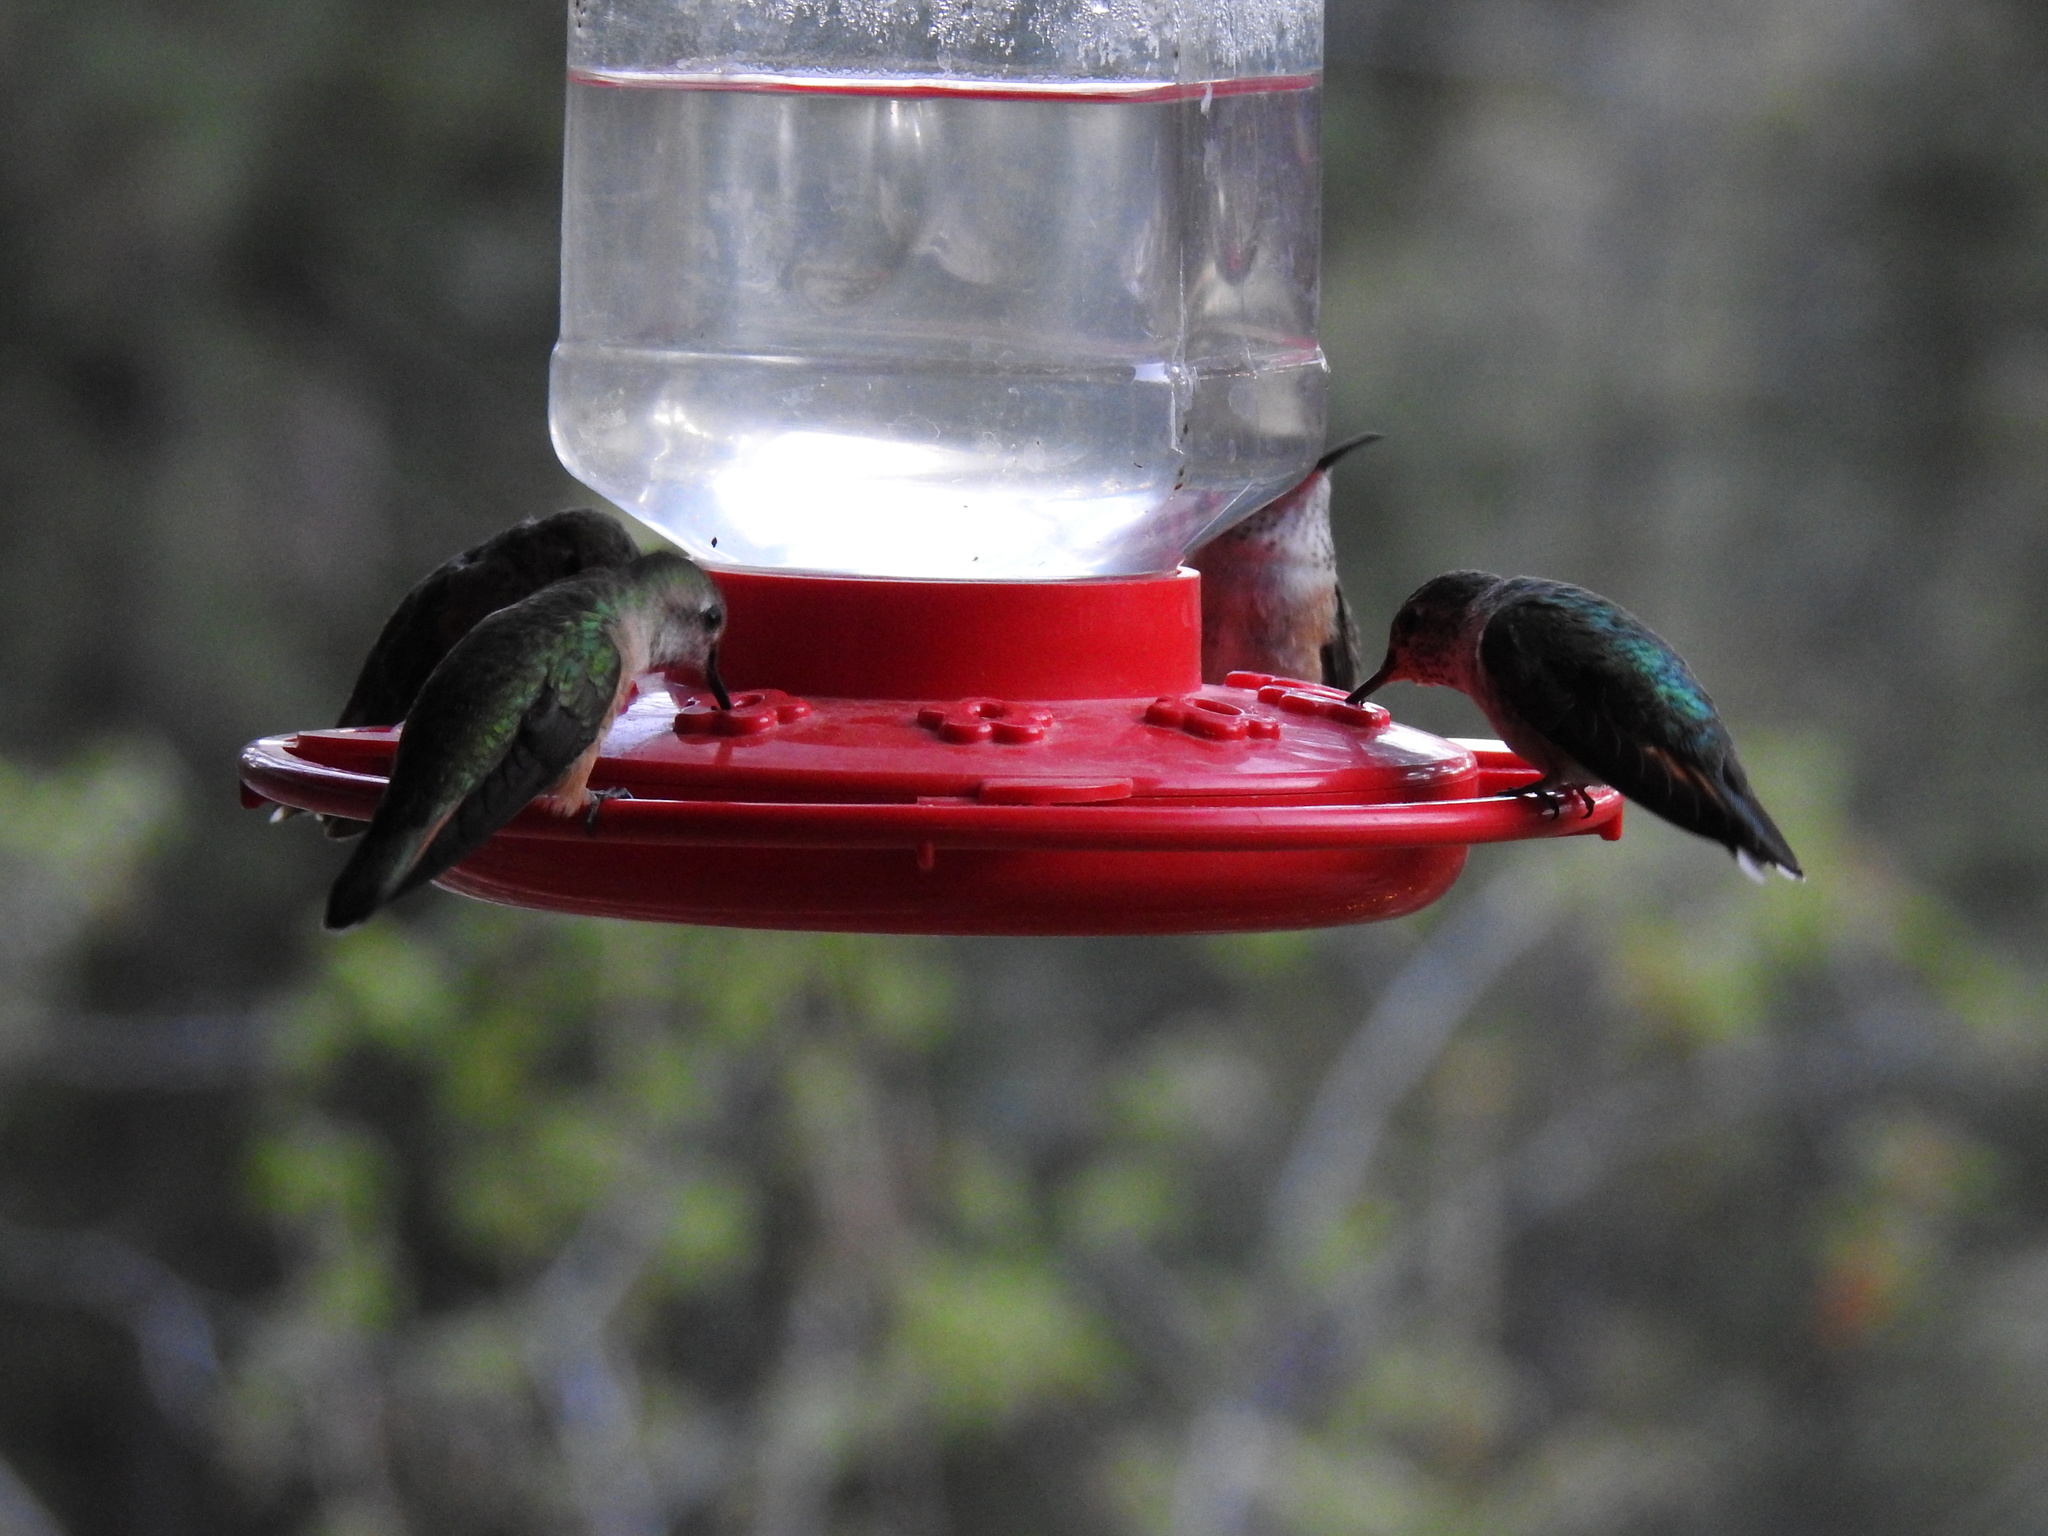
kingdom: Animalia
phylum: Chordata
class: Aves
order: Apodiformes
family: Trochilidae
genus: Selasphorus
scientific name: Selasphorus platycercus
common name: Broad-tailed hummingbird
